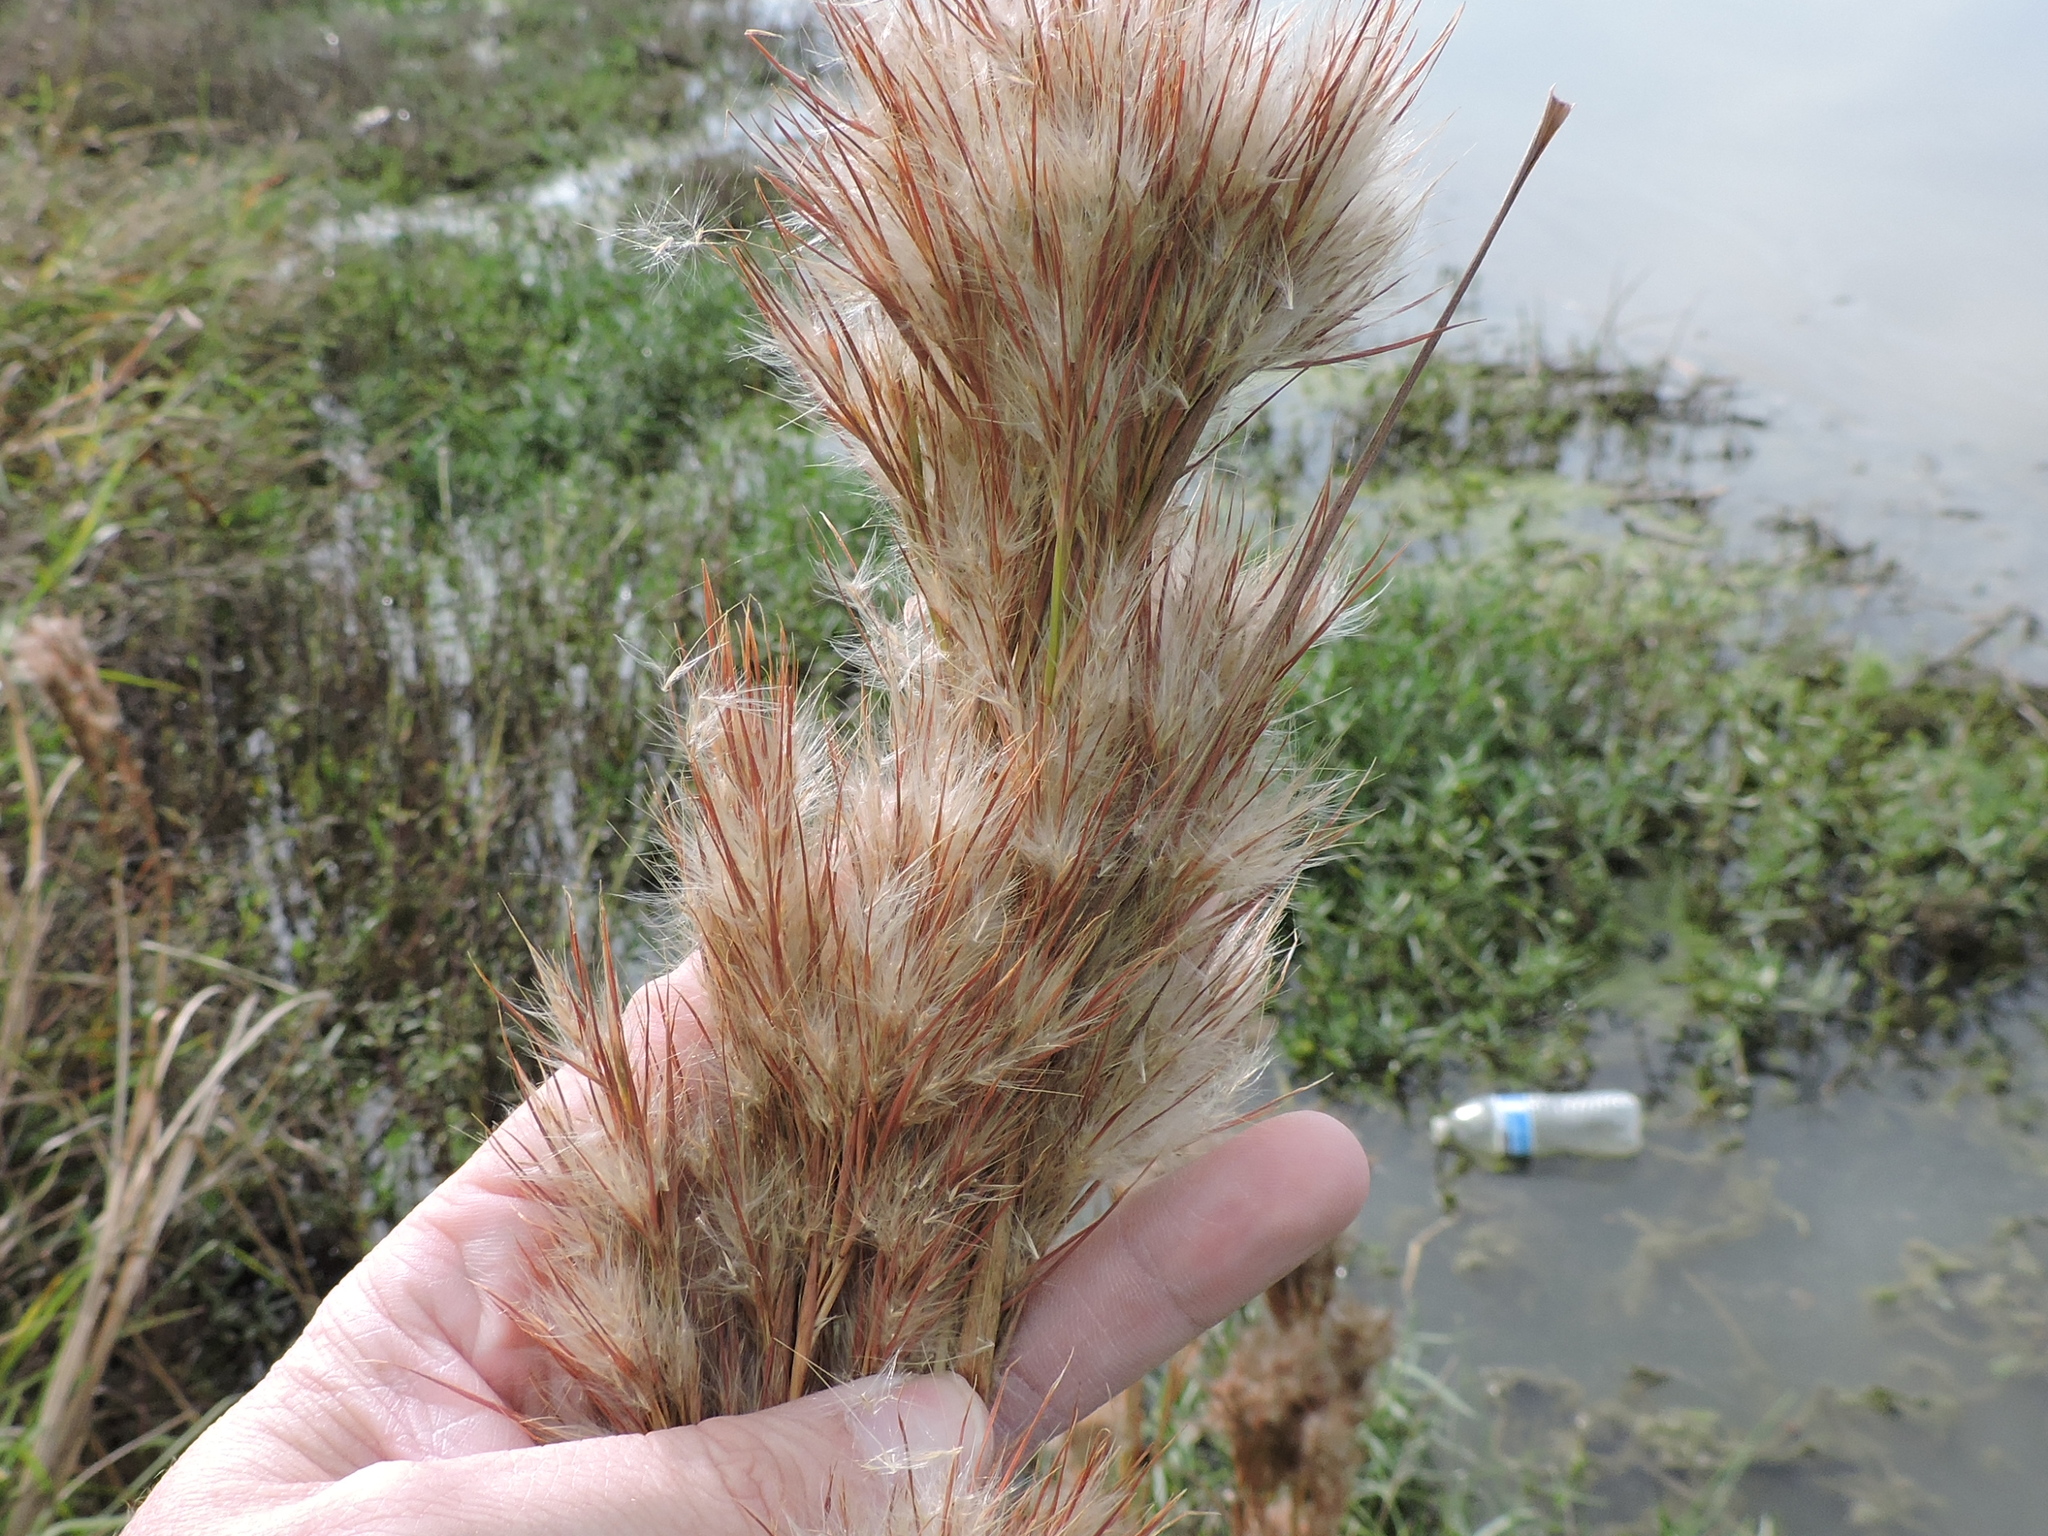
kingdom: Plantae
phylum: Tracheophyta
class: Liliopsida
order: Poales
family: Poaceae
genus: Andropogon
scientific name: Andropogon tenuispatheus
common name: Bushy bluestem
